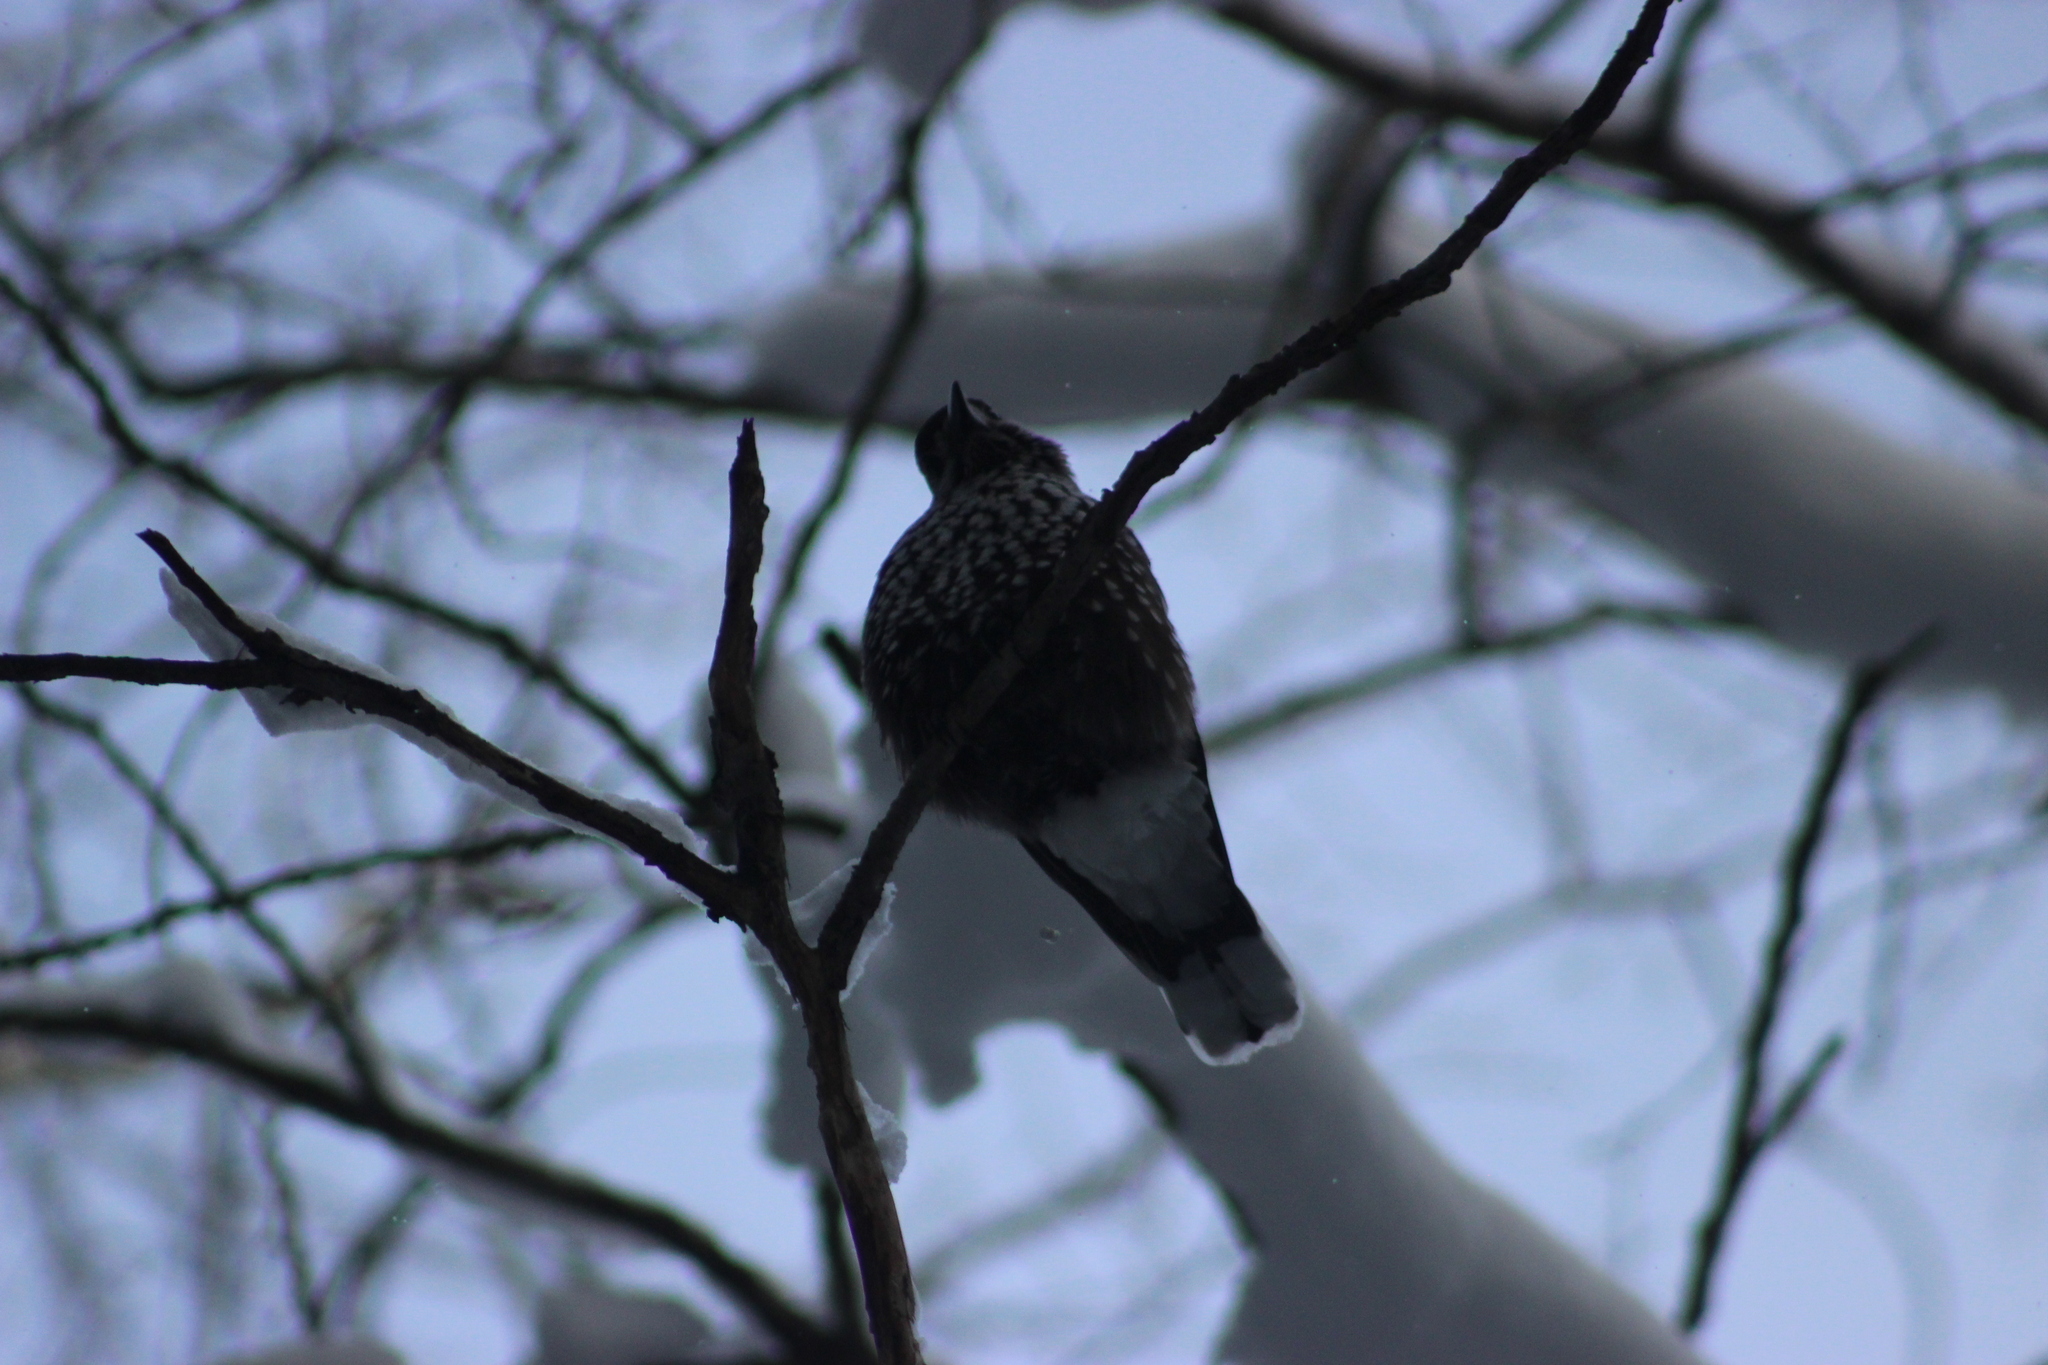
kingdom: Animalia
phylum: Chordata
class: Aves
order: Passeriformes
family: Corvidae
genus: Nucifraga
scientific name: Nucifraga caryocatactes
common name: Spotted nutcracker
